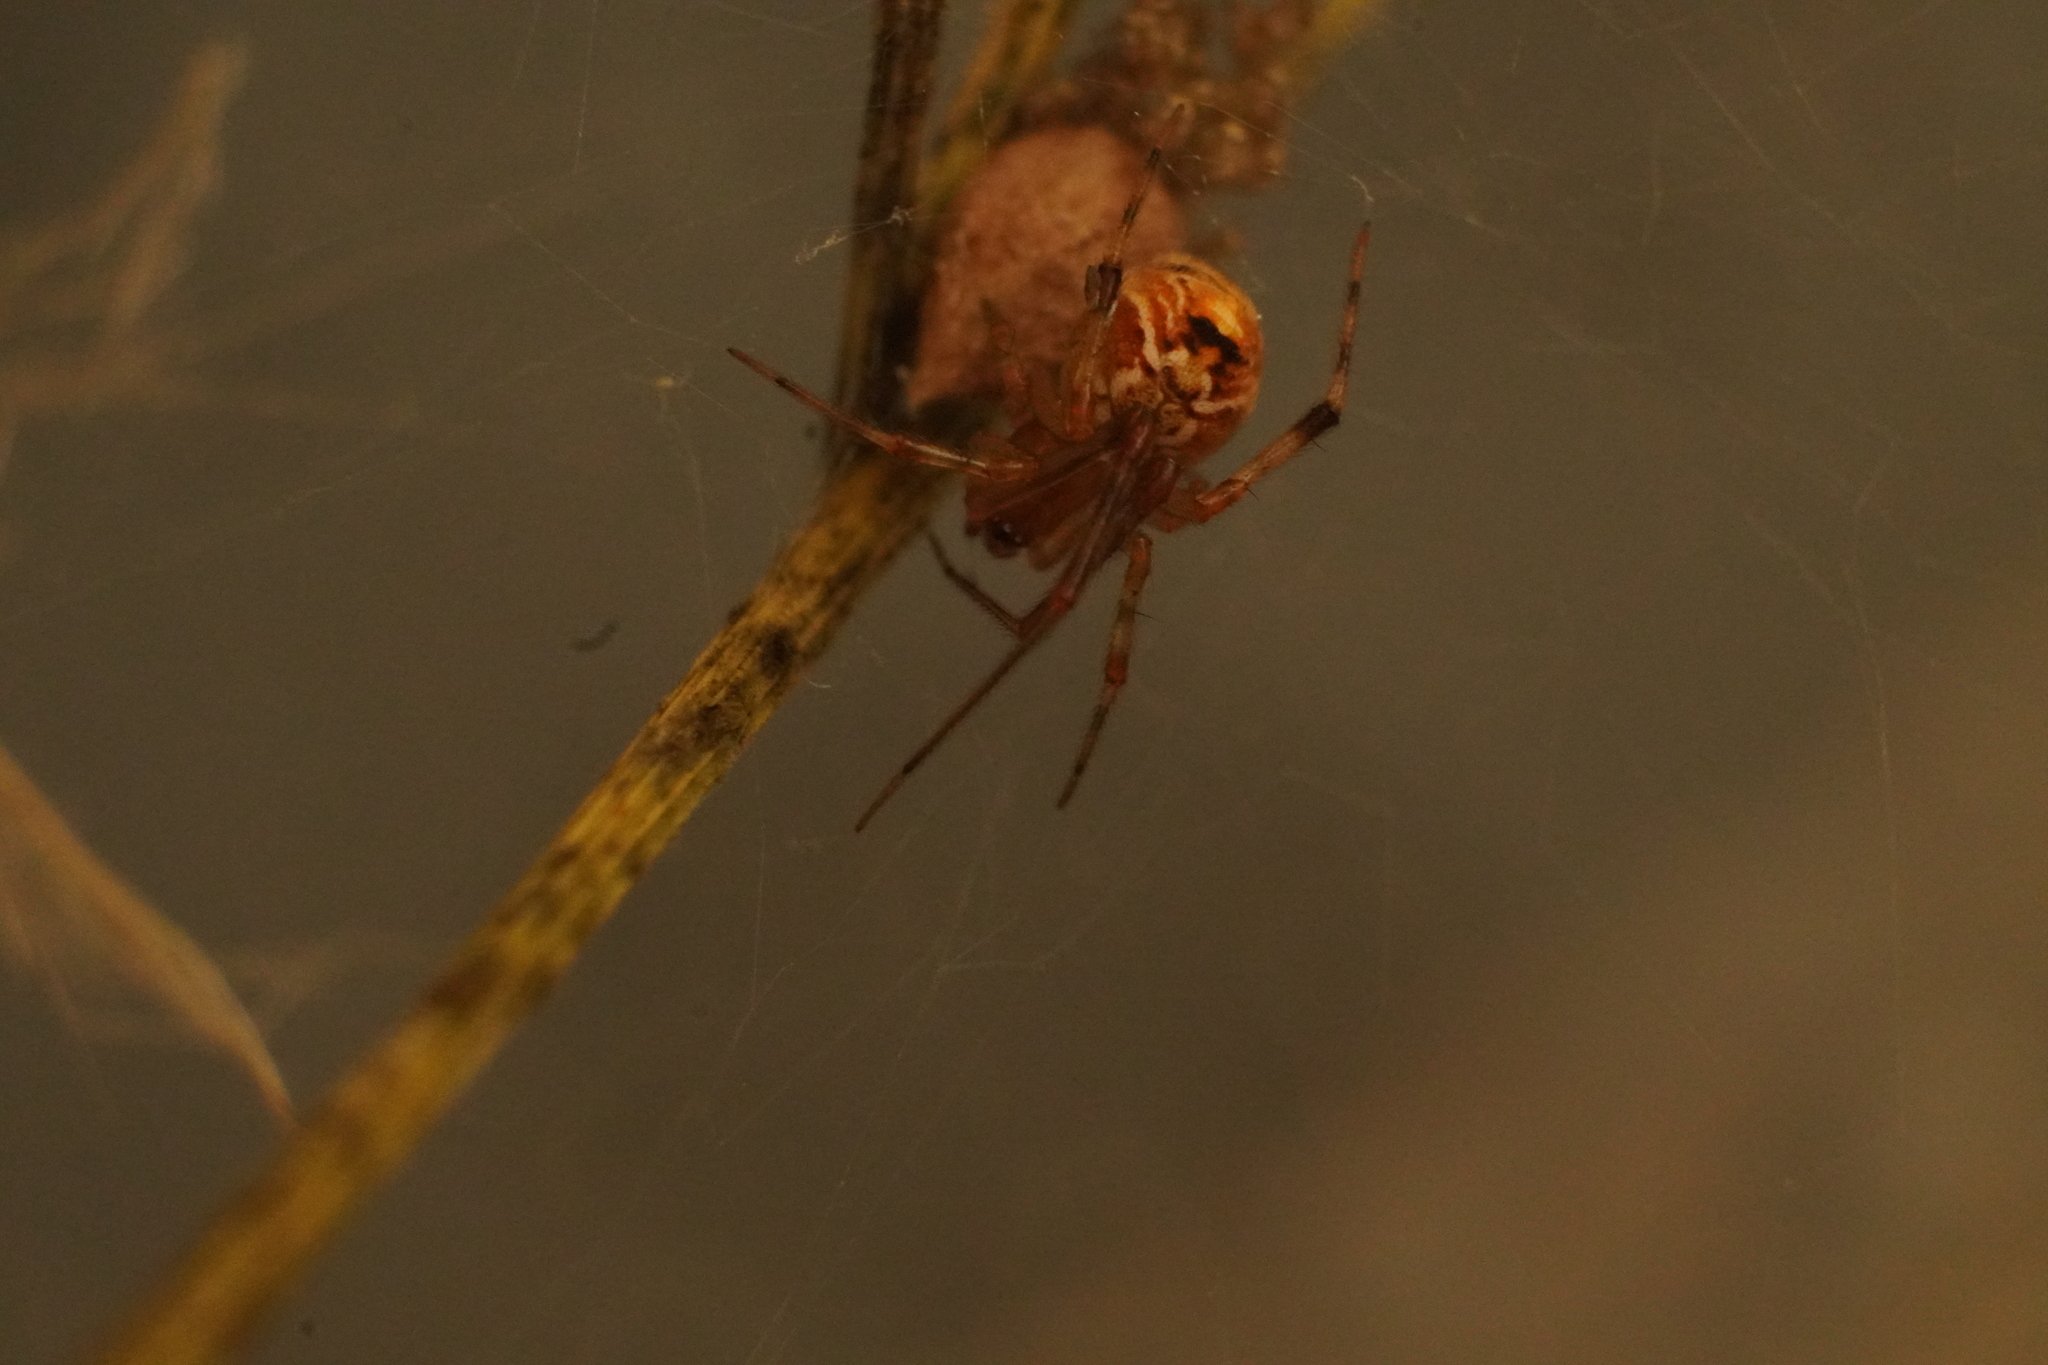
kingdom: Animalia
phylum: Arthropoda
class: Arachnida
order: Araneae
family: Theridiidae
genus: Parasteatoda
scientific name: Parasteatoda tepidariorum
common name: Common house spider
